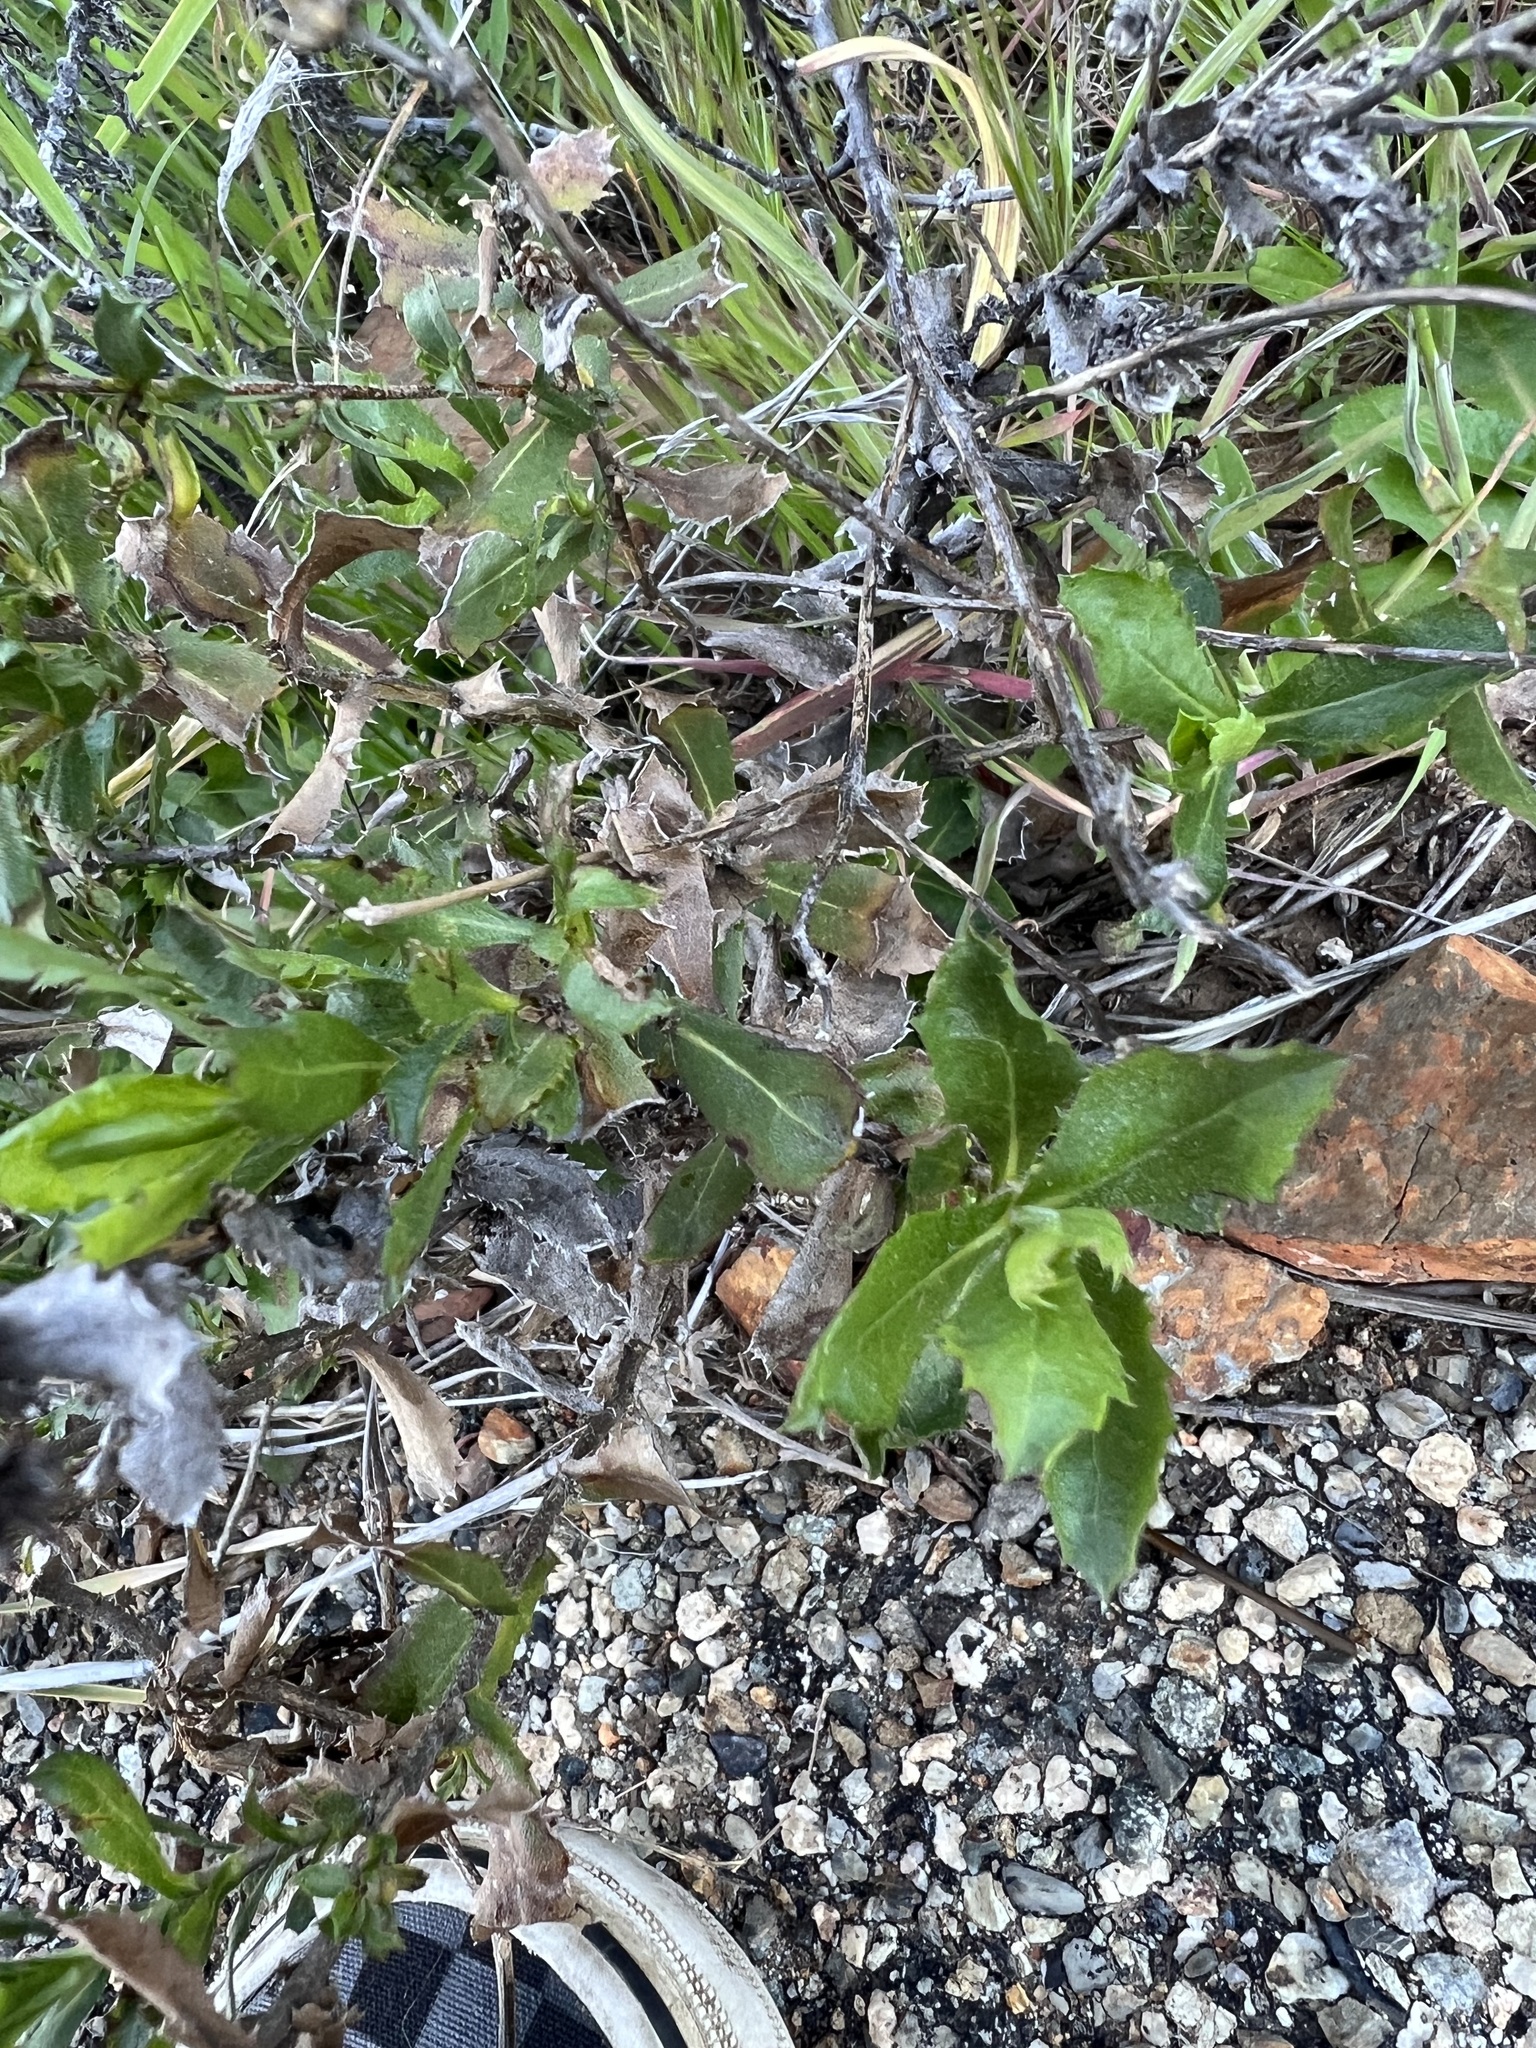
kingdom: Plantae
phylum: Tracheophyta
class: Magnoliopsida
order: Asterales
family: Asteraceae
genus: Hazardia
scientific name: Hazardia squarrosa
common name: Saw-tooth goldenbush
